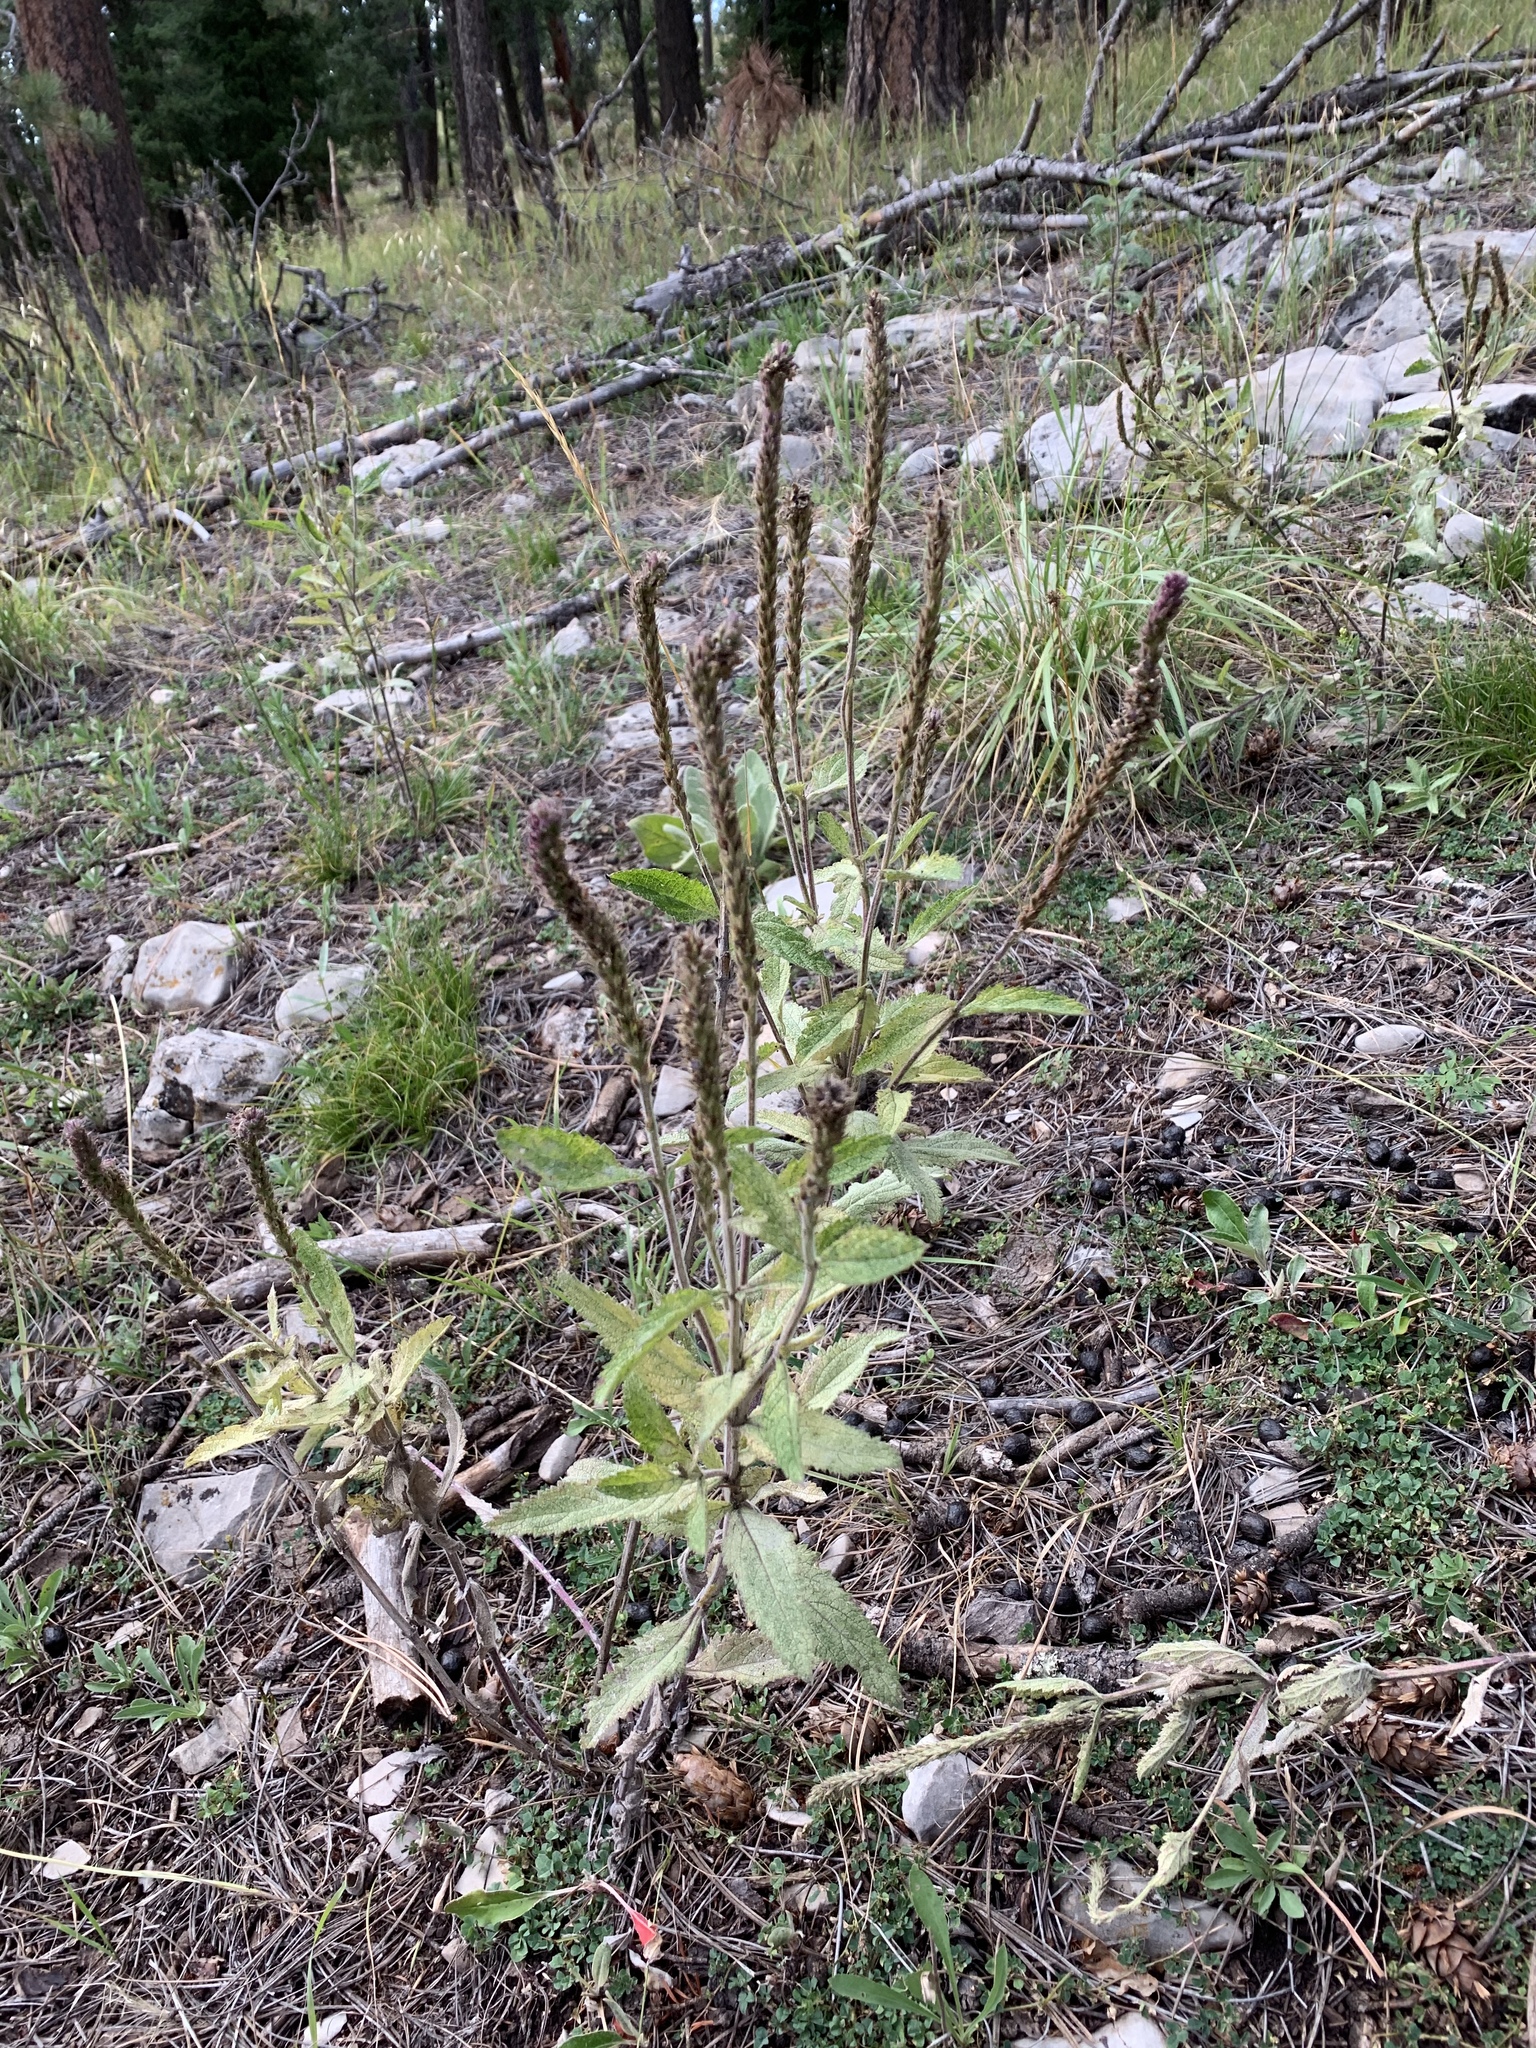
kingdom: Plantae
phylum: Tracheophyta
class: Magnoliopsida
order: Lamiales
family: Verbenaceae
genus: Verbena
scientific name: Verbena macdougalii
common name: New mexico vervain
